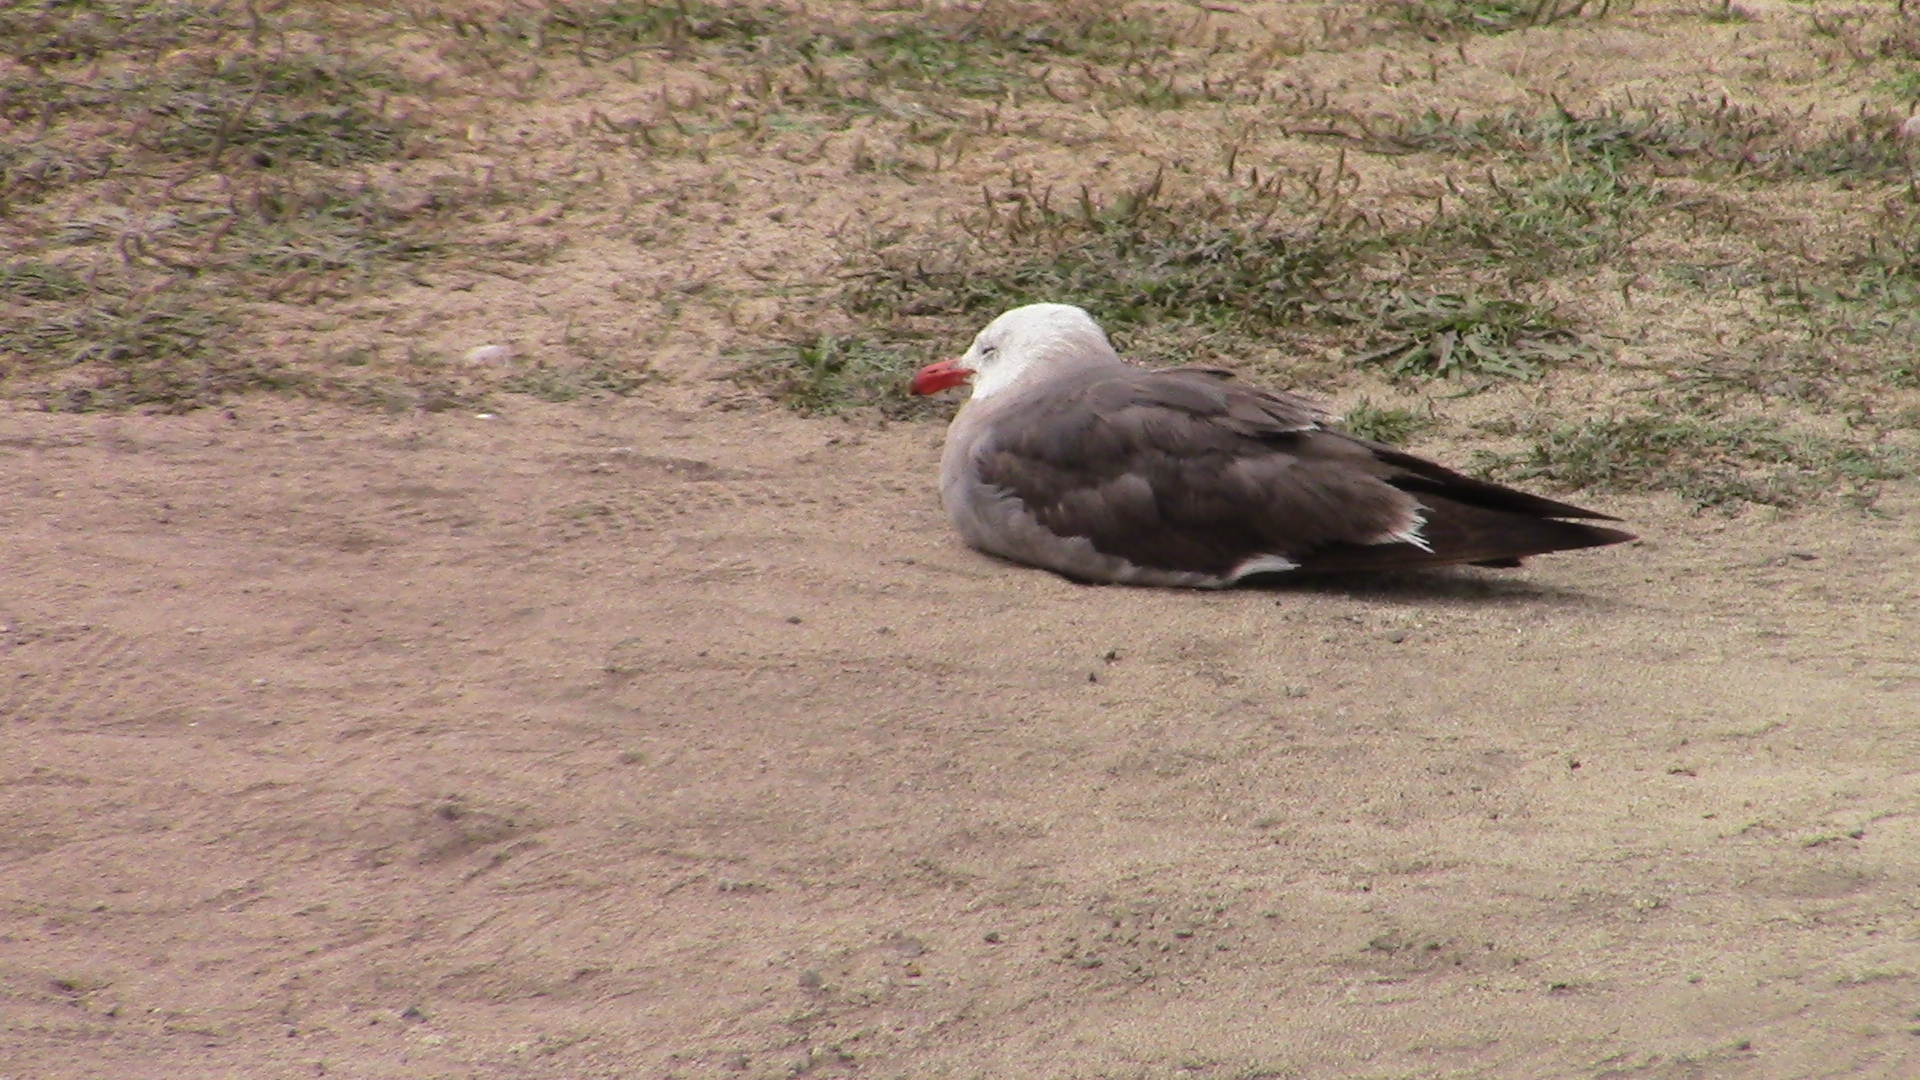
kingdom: Animalia
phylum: Chordata
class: Aves
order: Charadriiformes
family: Laridae
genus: Larus
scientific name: Larus heermanni
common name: Heermann's gull
